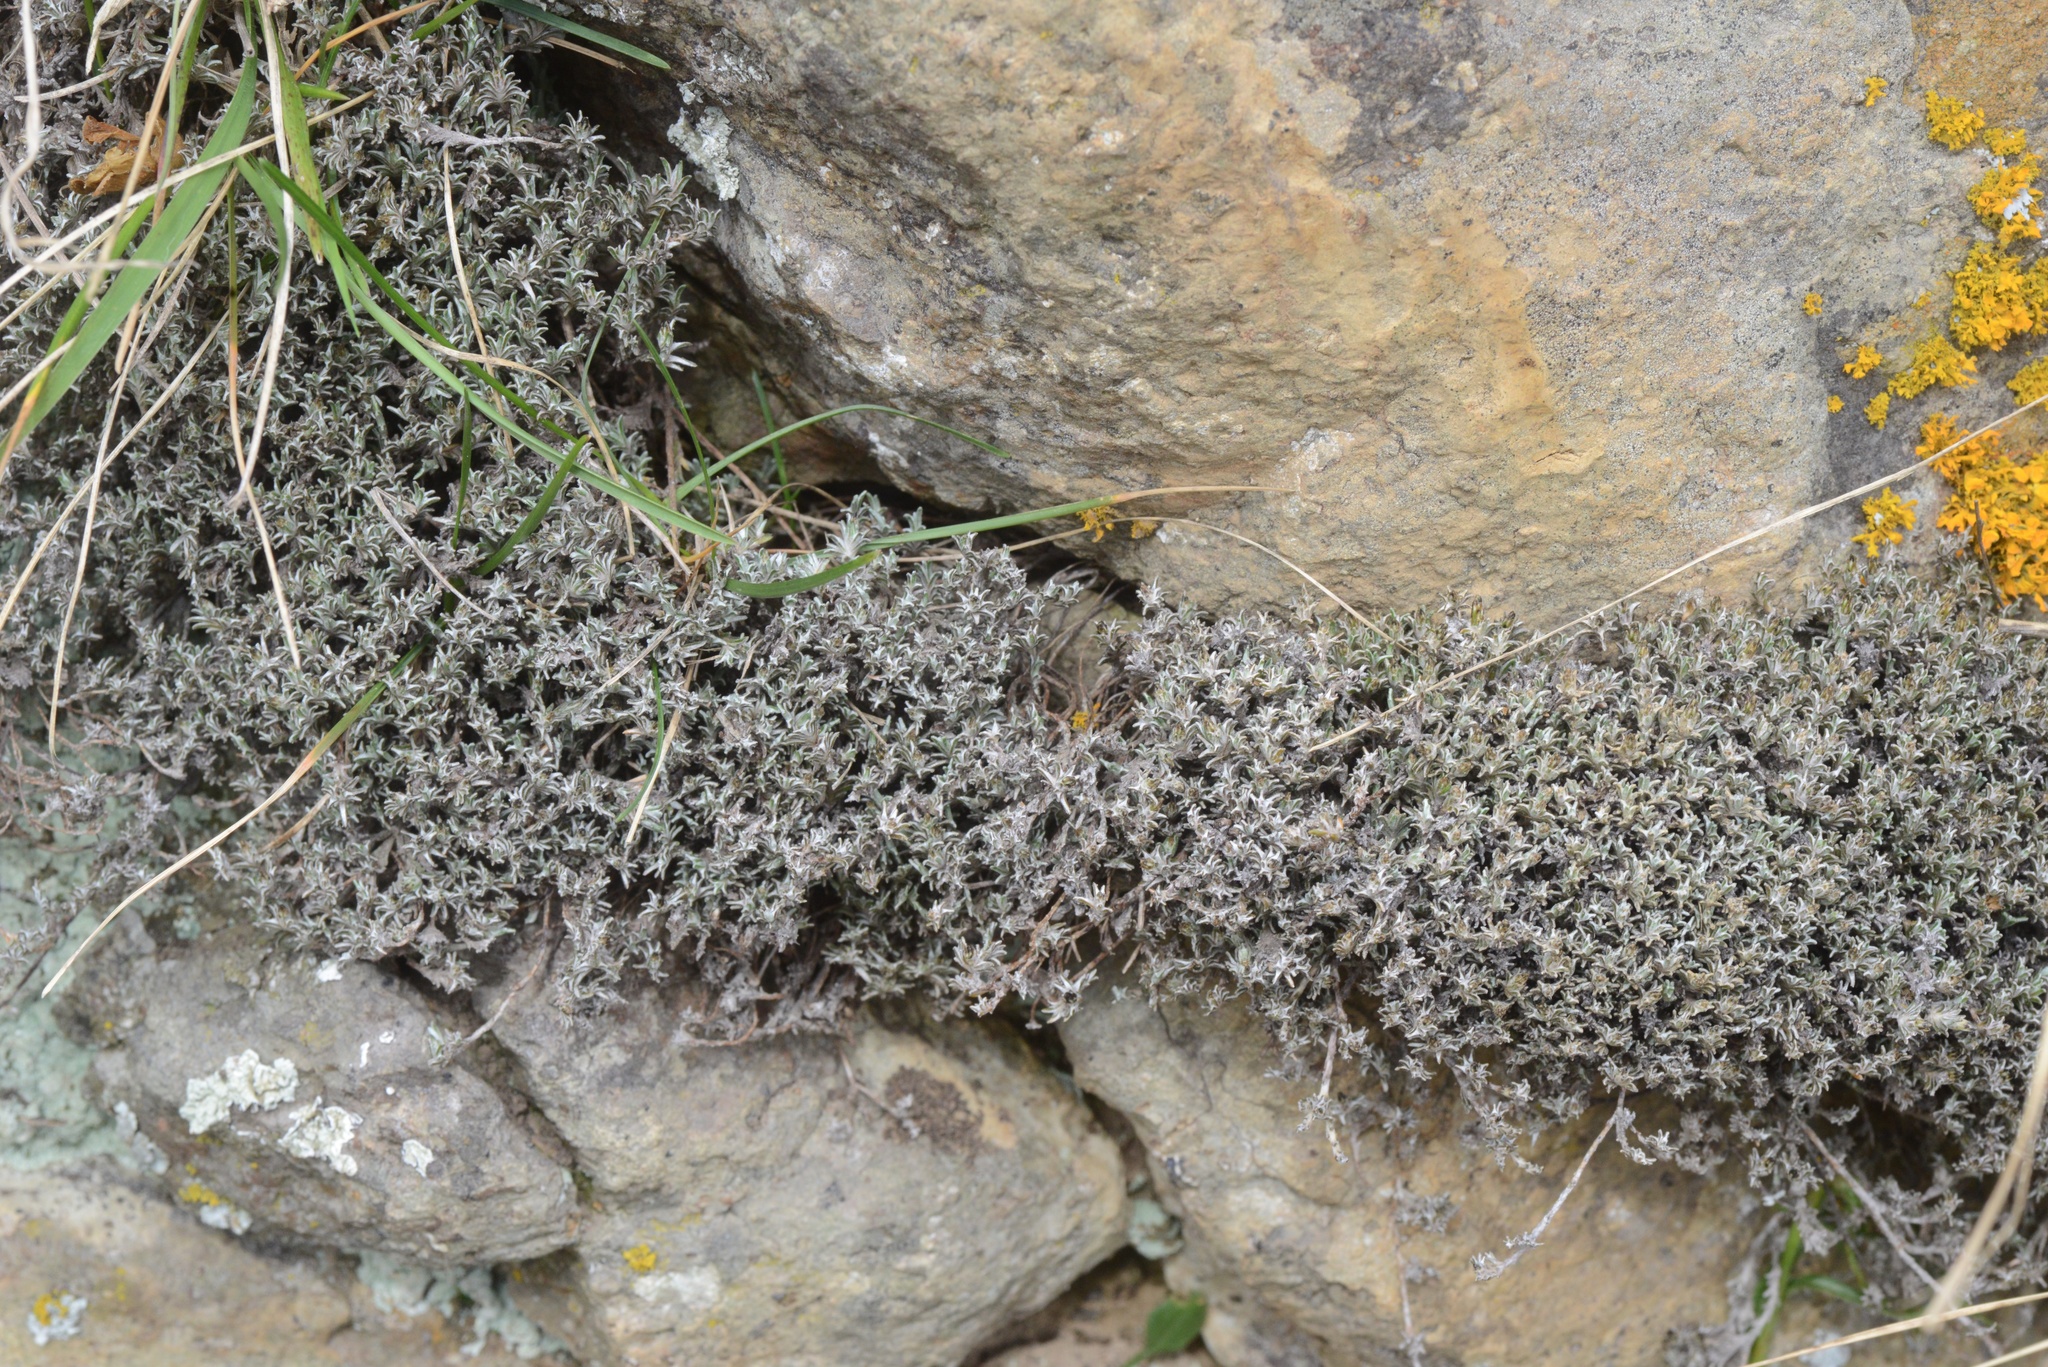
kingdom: Plantae
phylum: Tracheophyta
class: Magnoliopsida
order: Asterales
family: Asteraceae
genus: Raoulia
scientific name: Raoulia monroi
